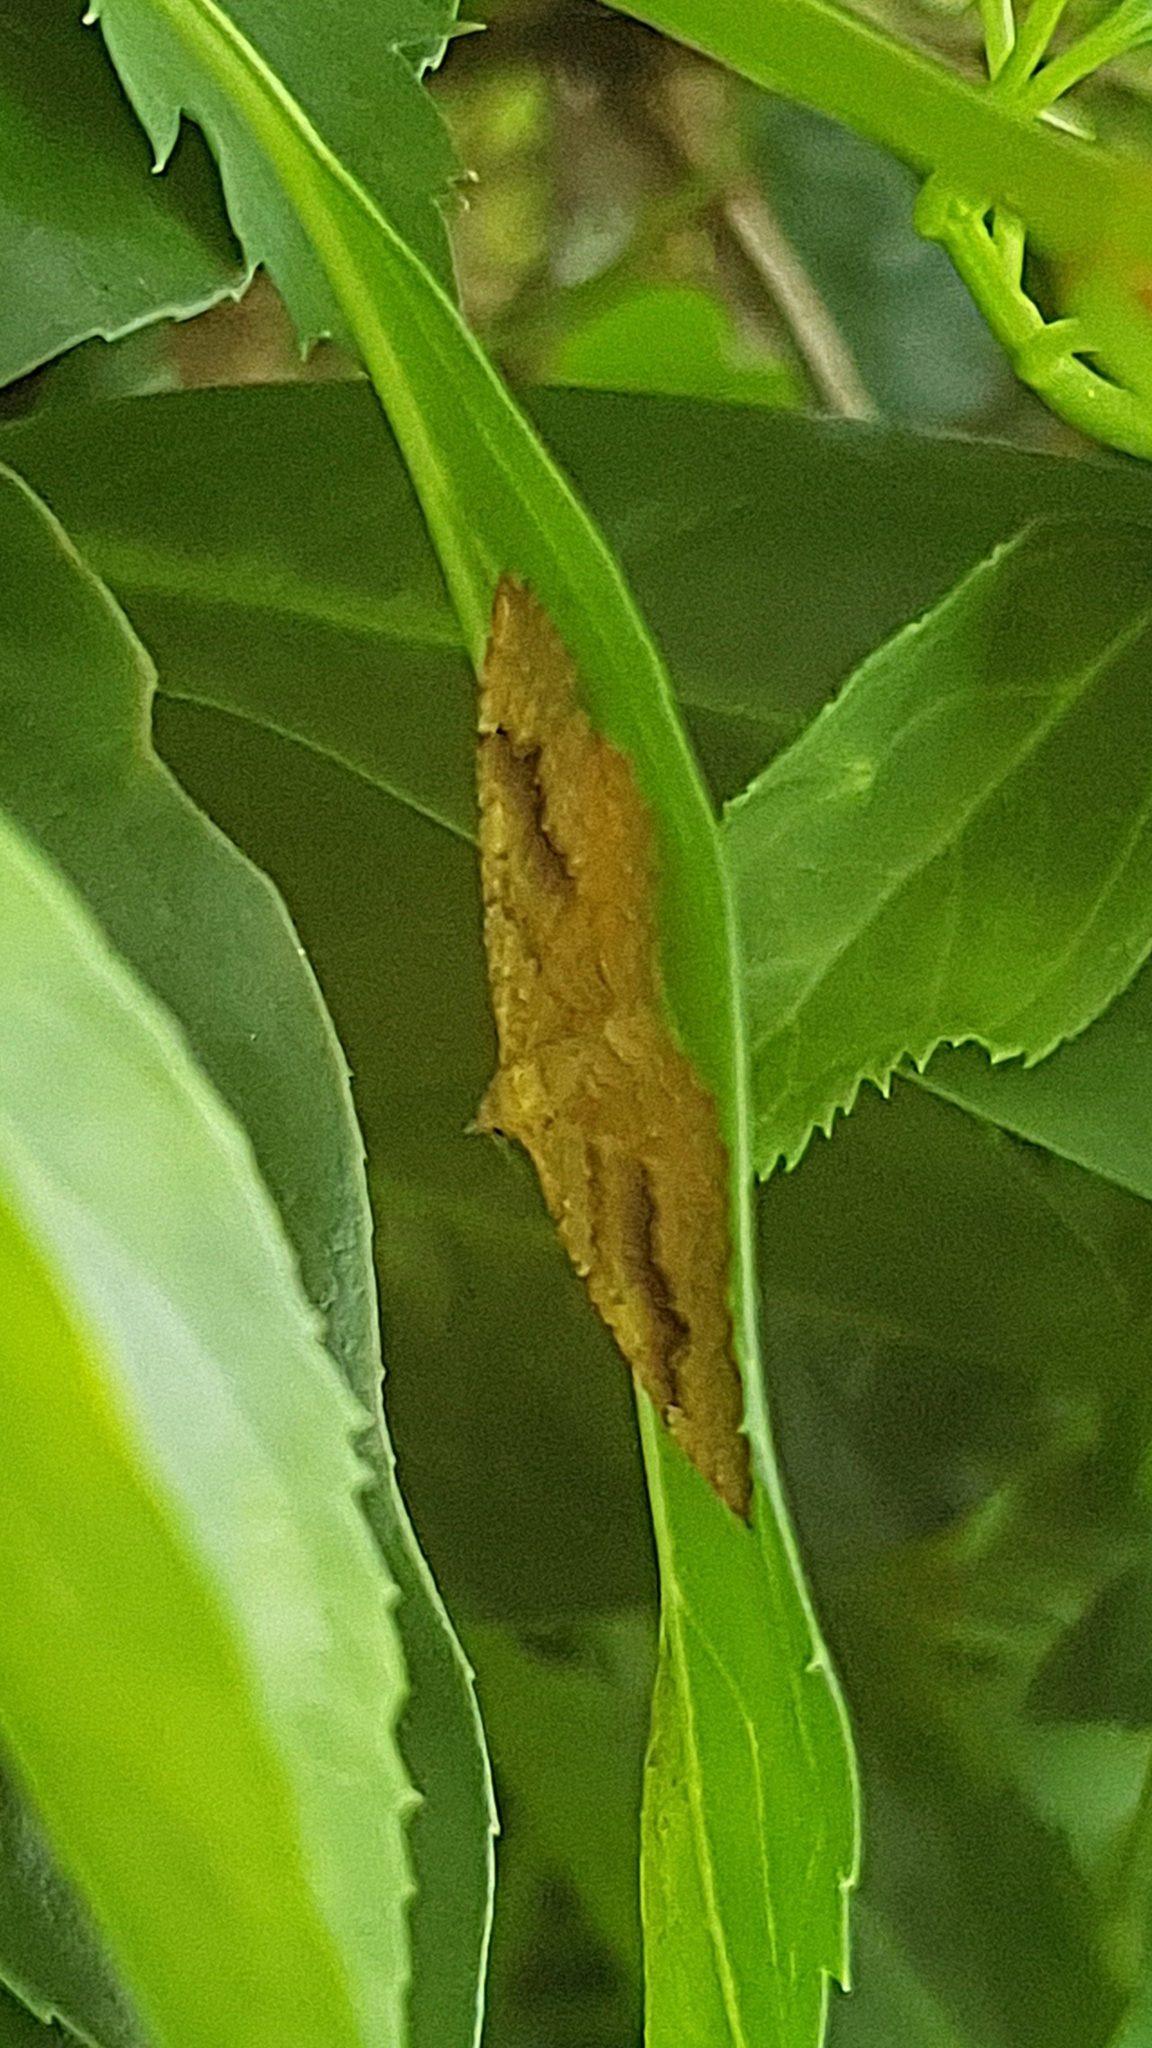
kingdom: Animalia
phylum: Arthropoda
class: Insecta
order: Lepidoptera
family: Geometridae
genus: Camptogramma
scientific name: Camptogramma bilineata
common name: Yellow shell
